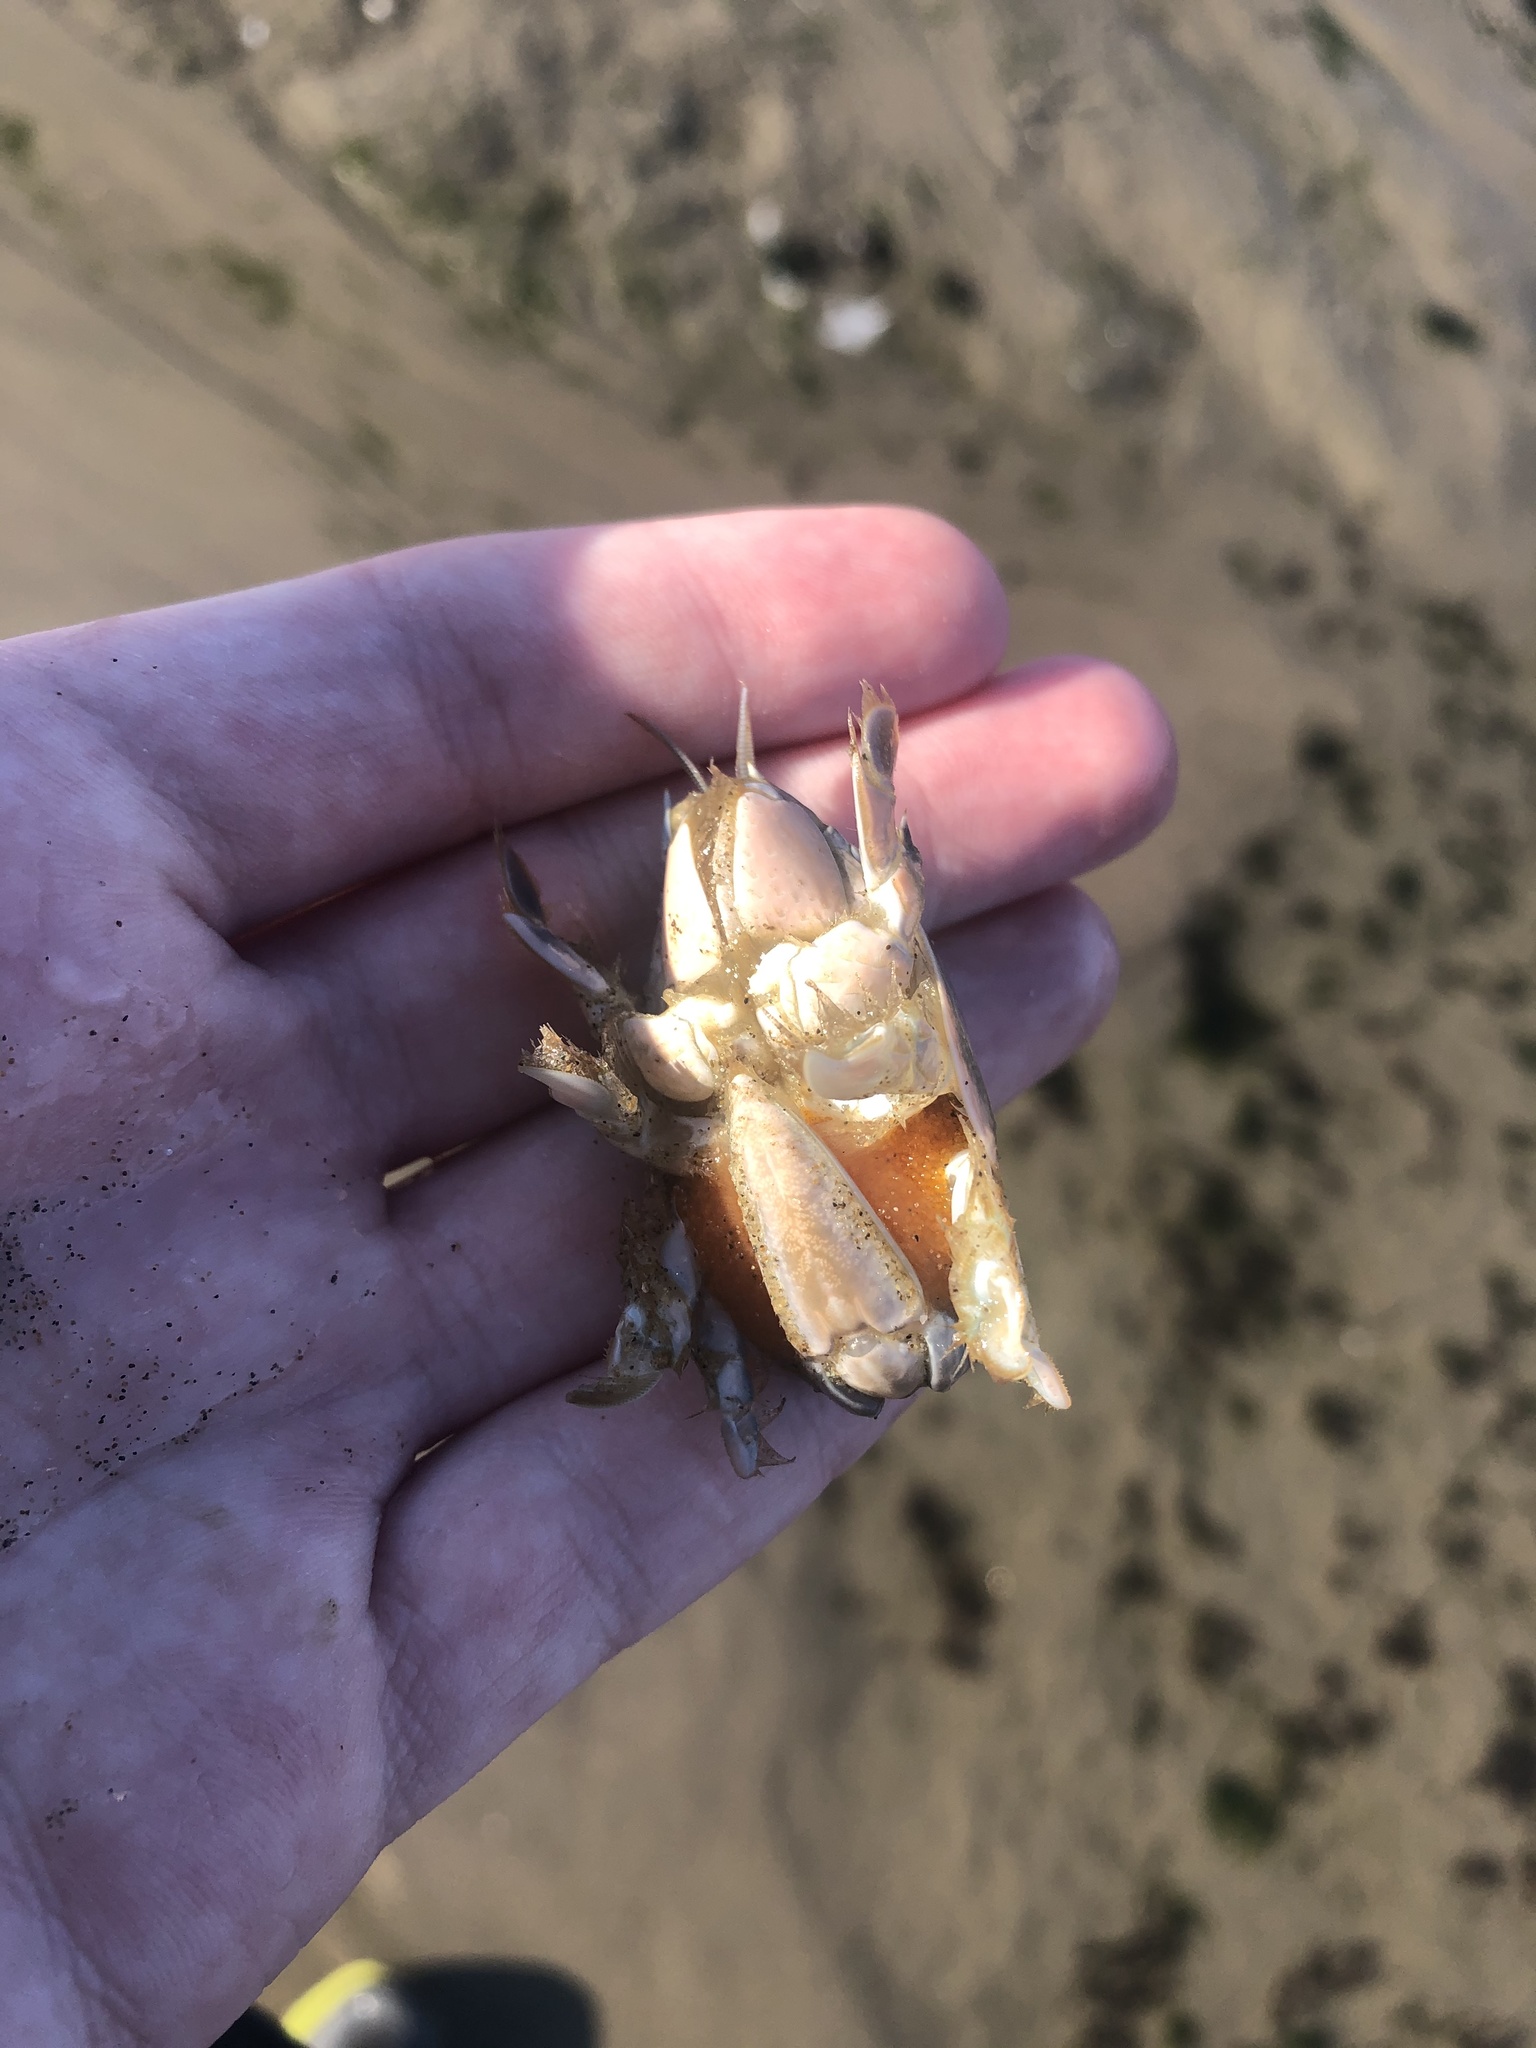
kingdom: Animalia
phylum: Arthropoda
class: Malacostraca
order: Decapoda
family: Hippidae
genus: Emerita
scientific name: Emerita analoga
